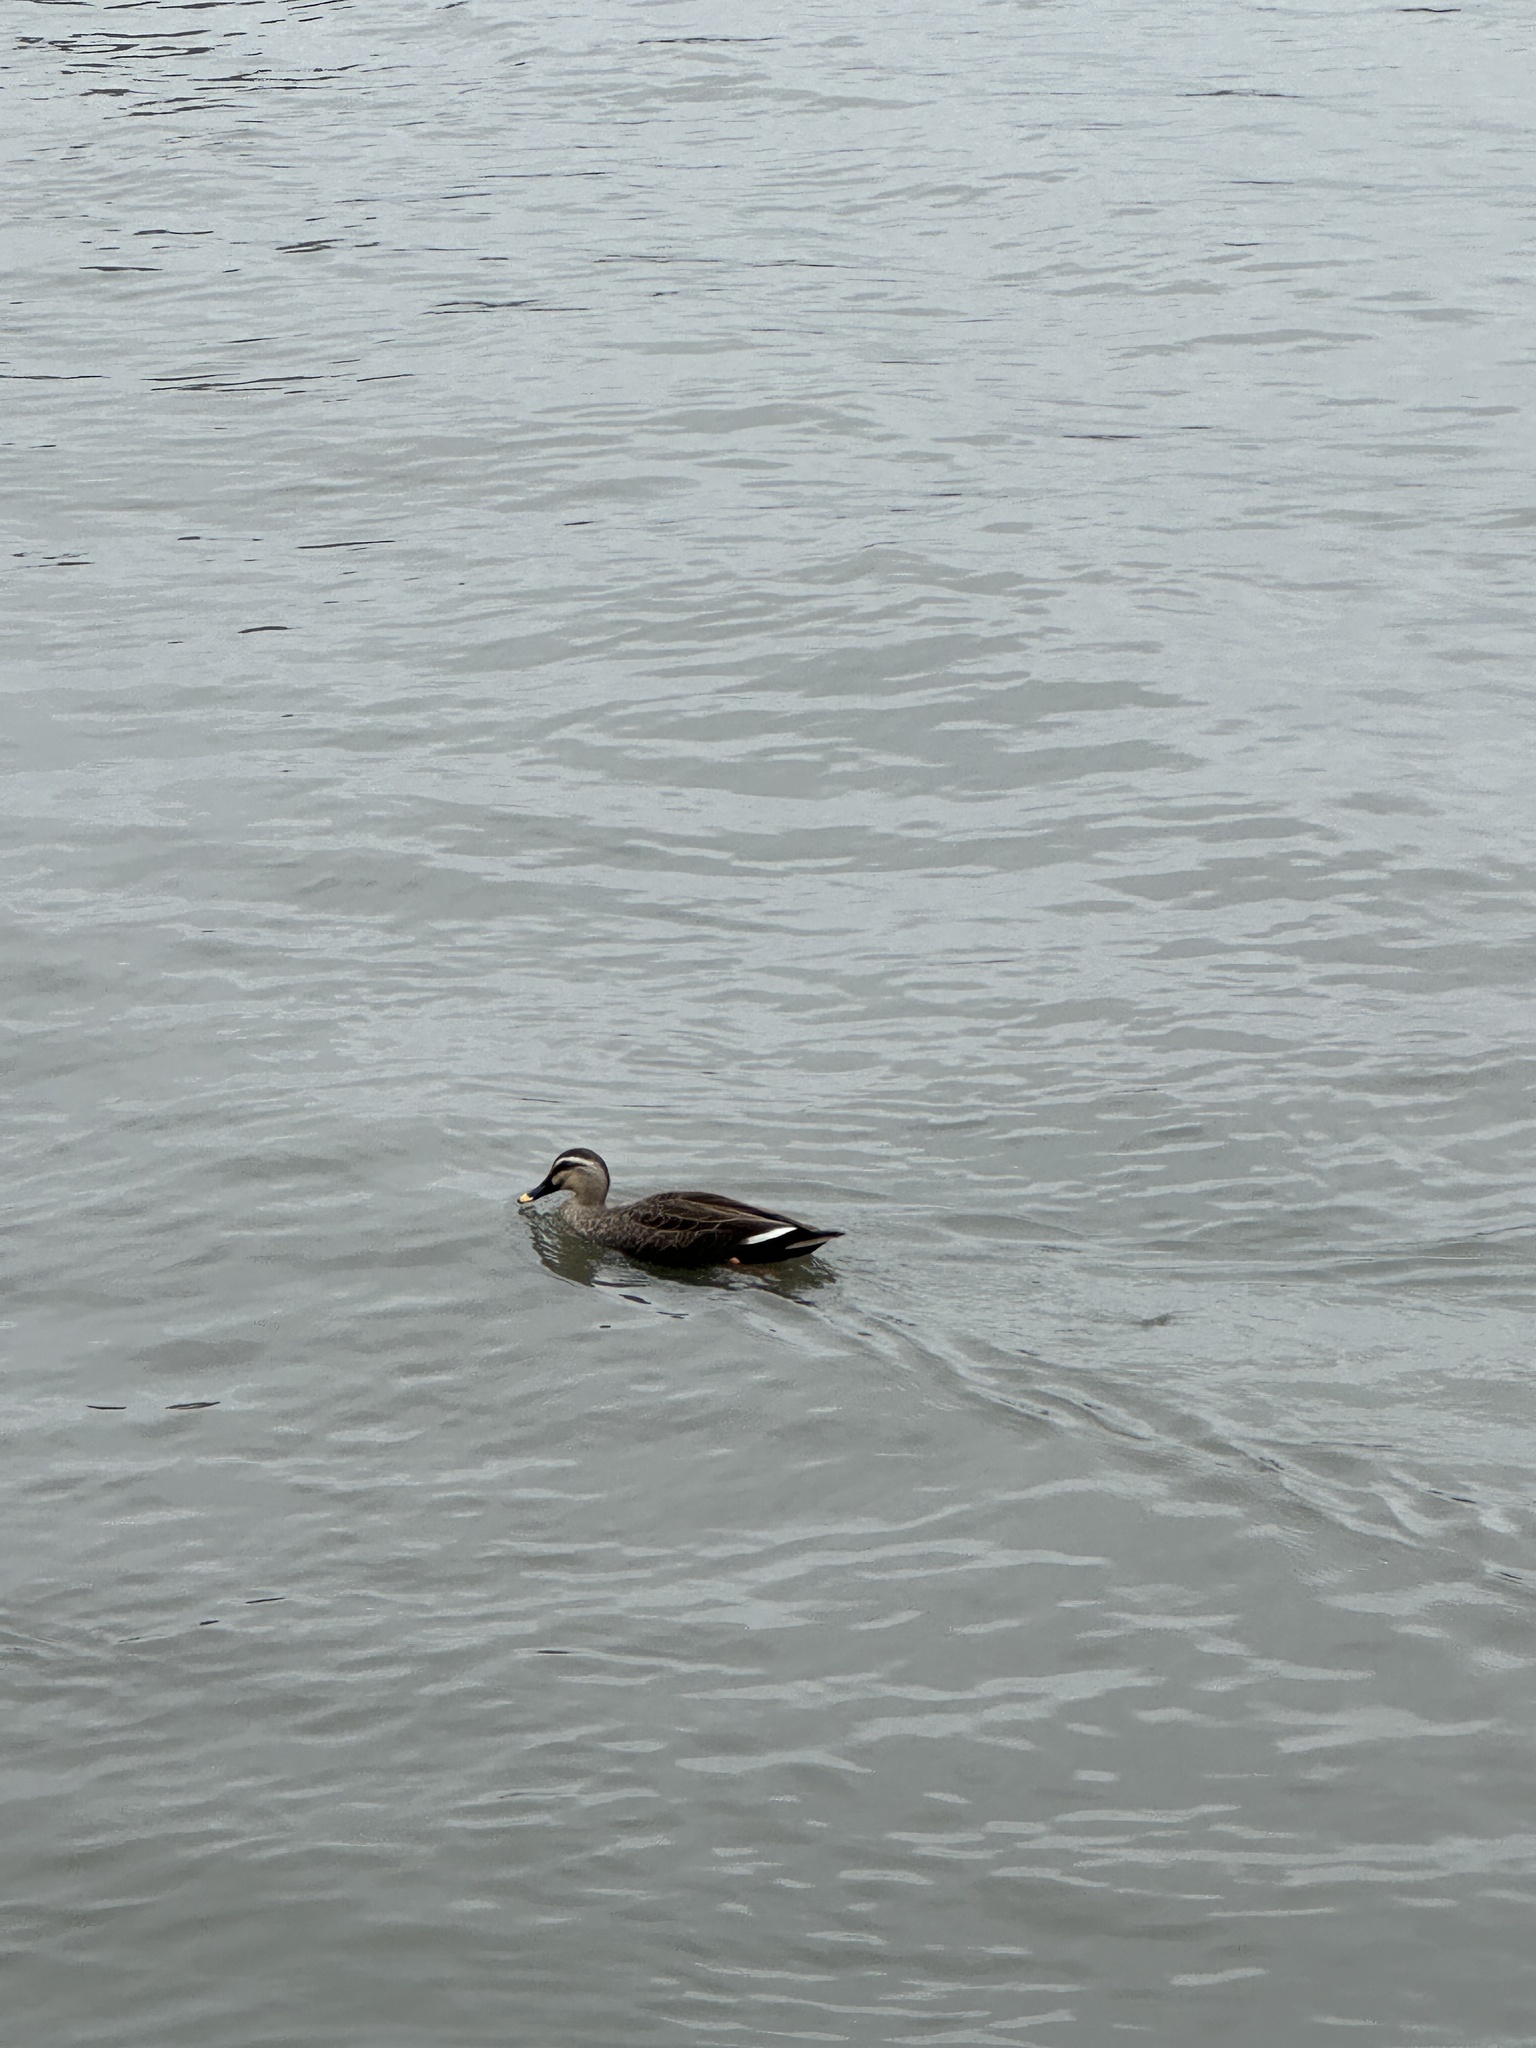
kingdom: Animalia
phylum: Chordata
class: Aves
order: Anseriformes
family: Anatidae
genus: Anas
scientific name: Anas zonorhyncha
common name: Eastern spot-billed duck
